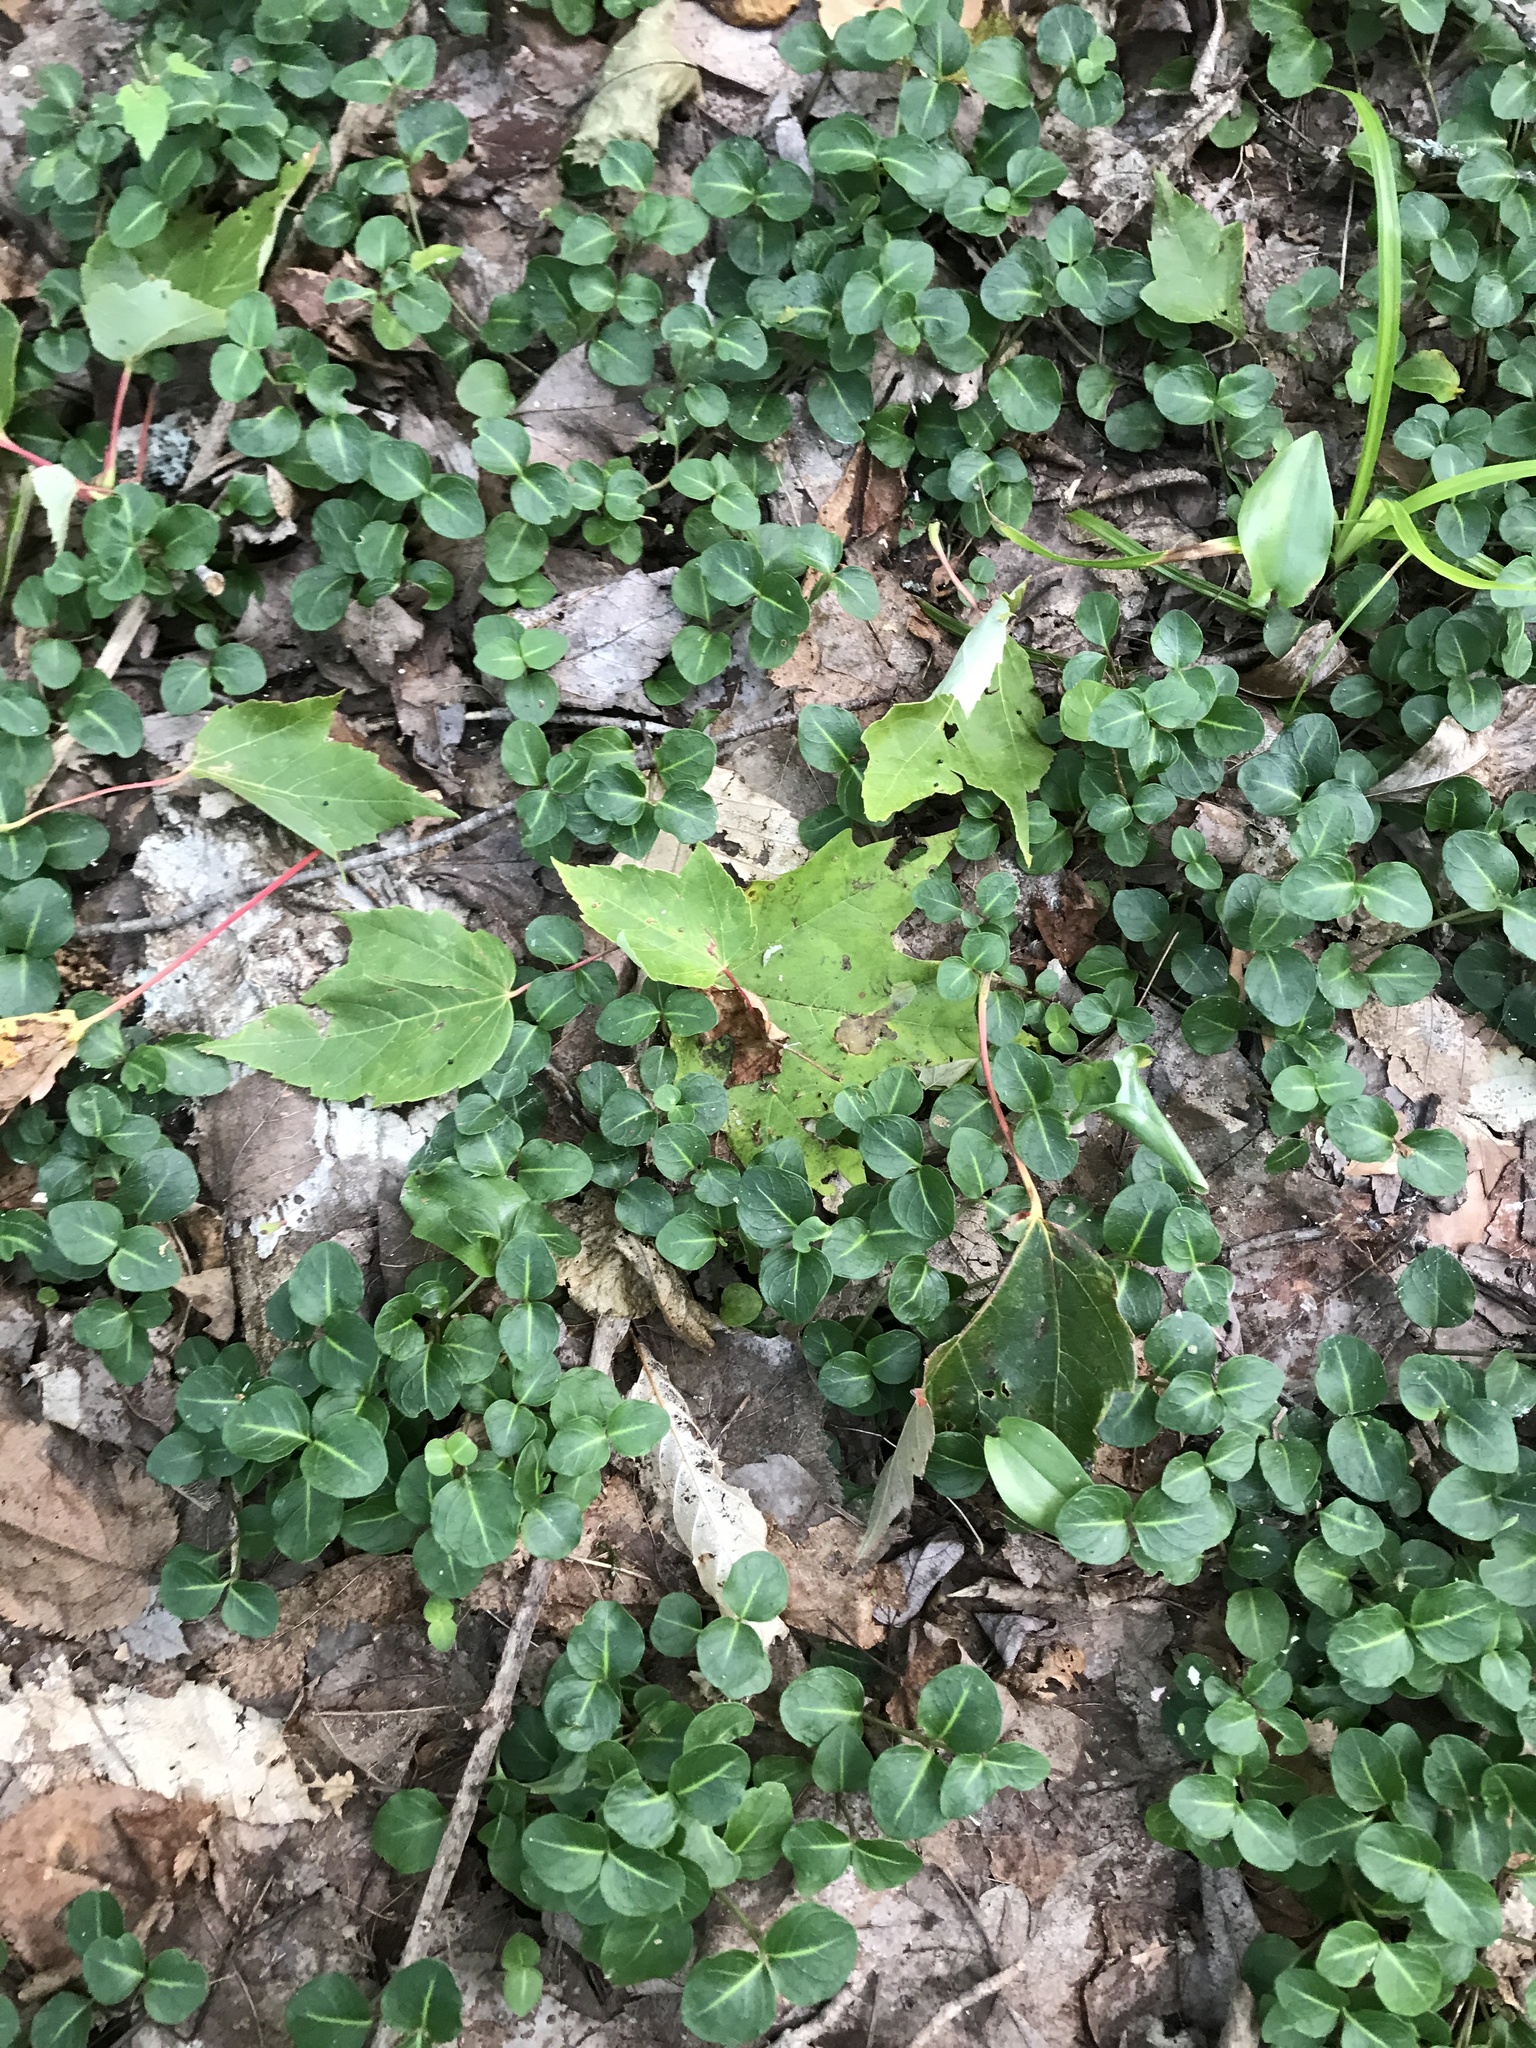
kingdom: Plantae
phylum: Tracheophyta
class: Magnoliopsida
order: Gentianales
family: Rubiaceae
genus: Mitchella
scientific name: Mitchella repens
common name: Partridge-berry
